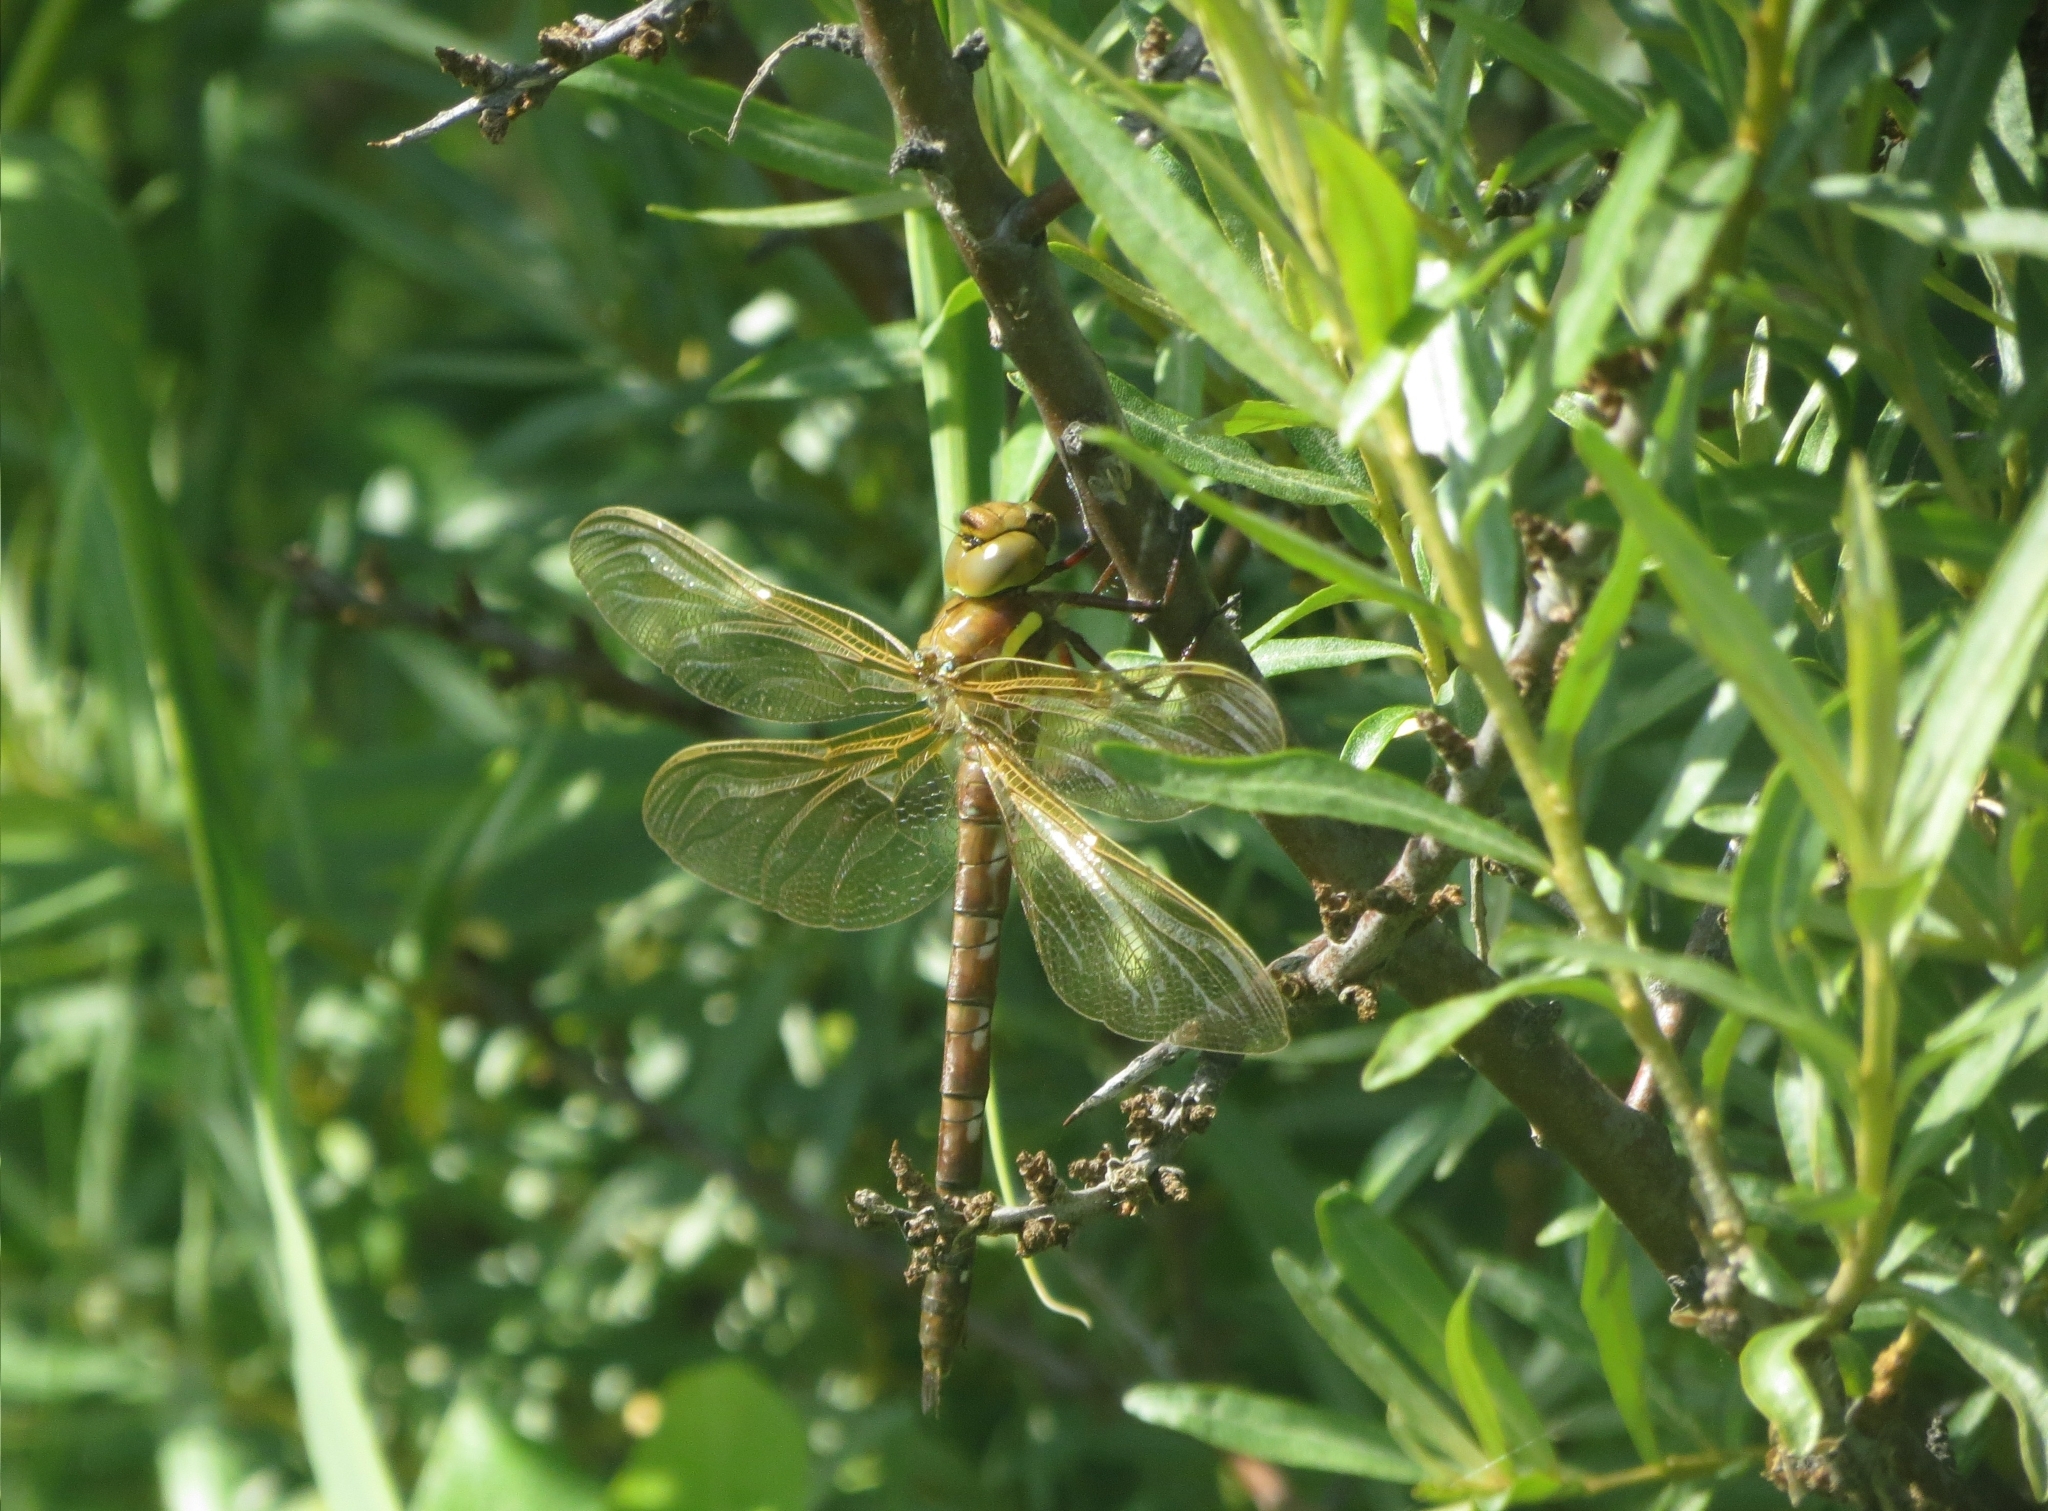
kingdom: Animalia
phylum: Arthropoda
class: Insecta
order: Odonata
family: Aeshnidae
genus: Aeshna
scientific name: Aeshna grandis
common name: Brown hawker
